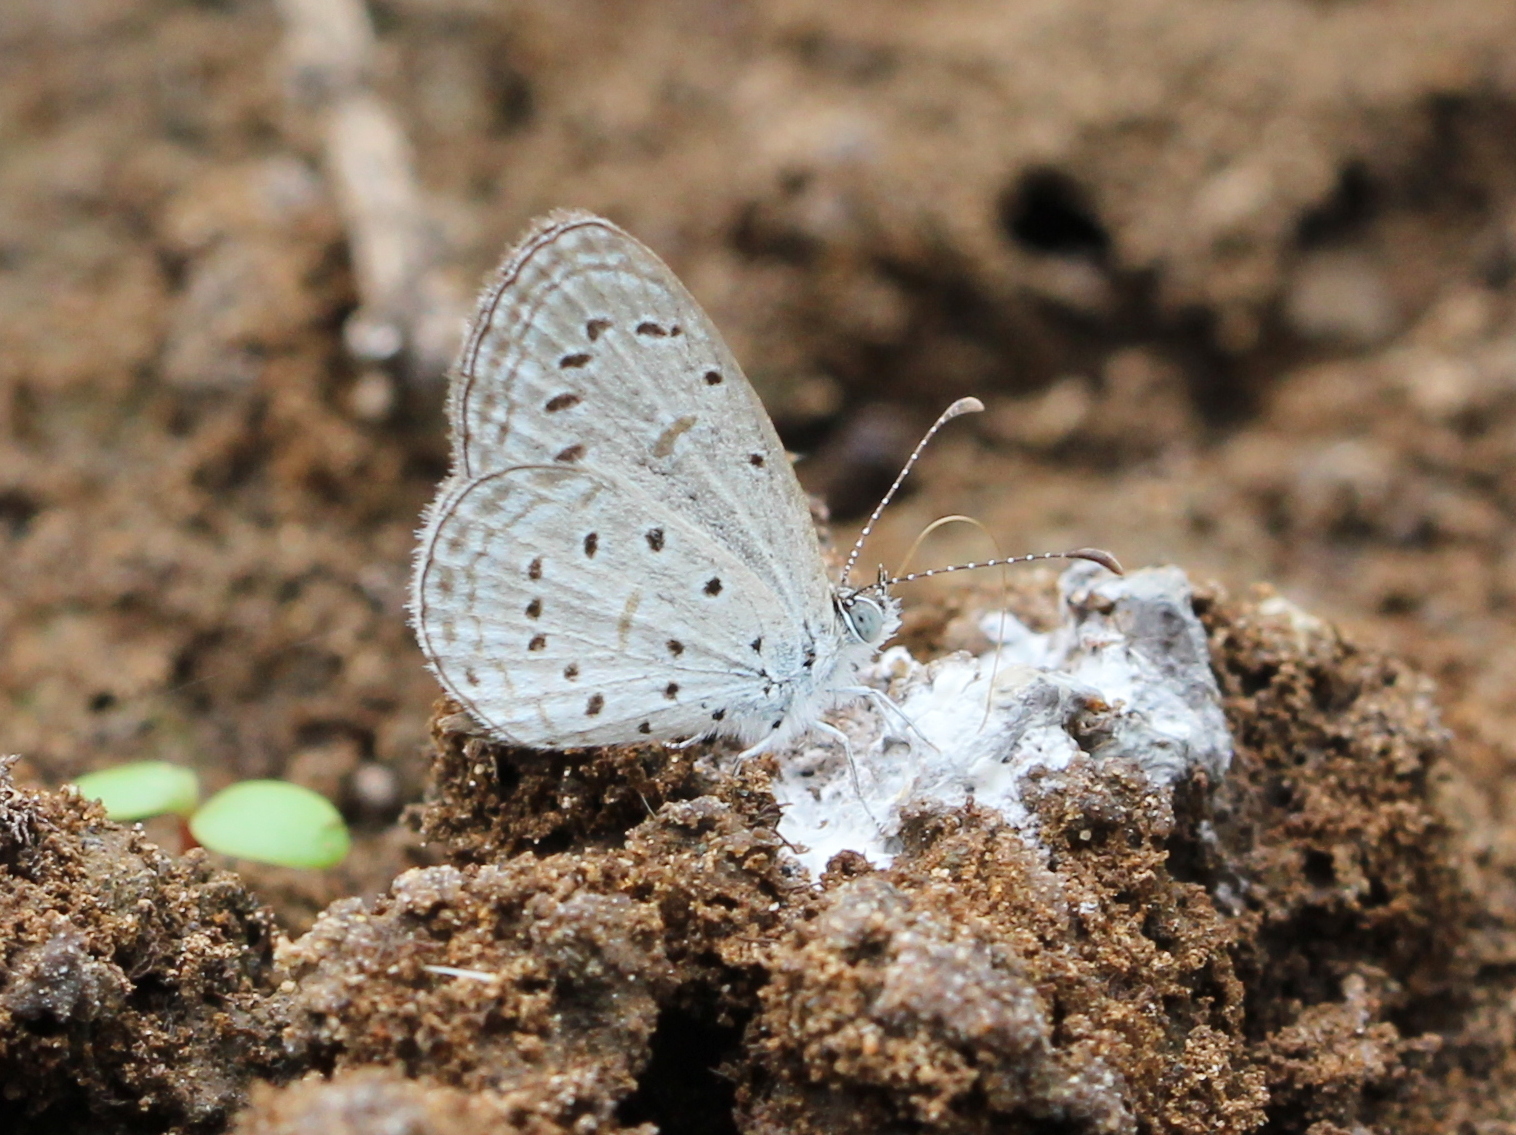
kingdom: Animalia
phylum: Arthropoda
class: Insecta
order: Lepidoptera
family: Lycaenidae
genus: Zizula
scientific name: Zizula hylax
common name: Gaika blue
